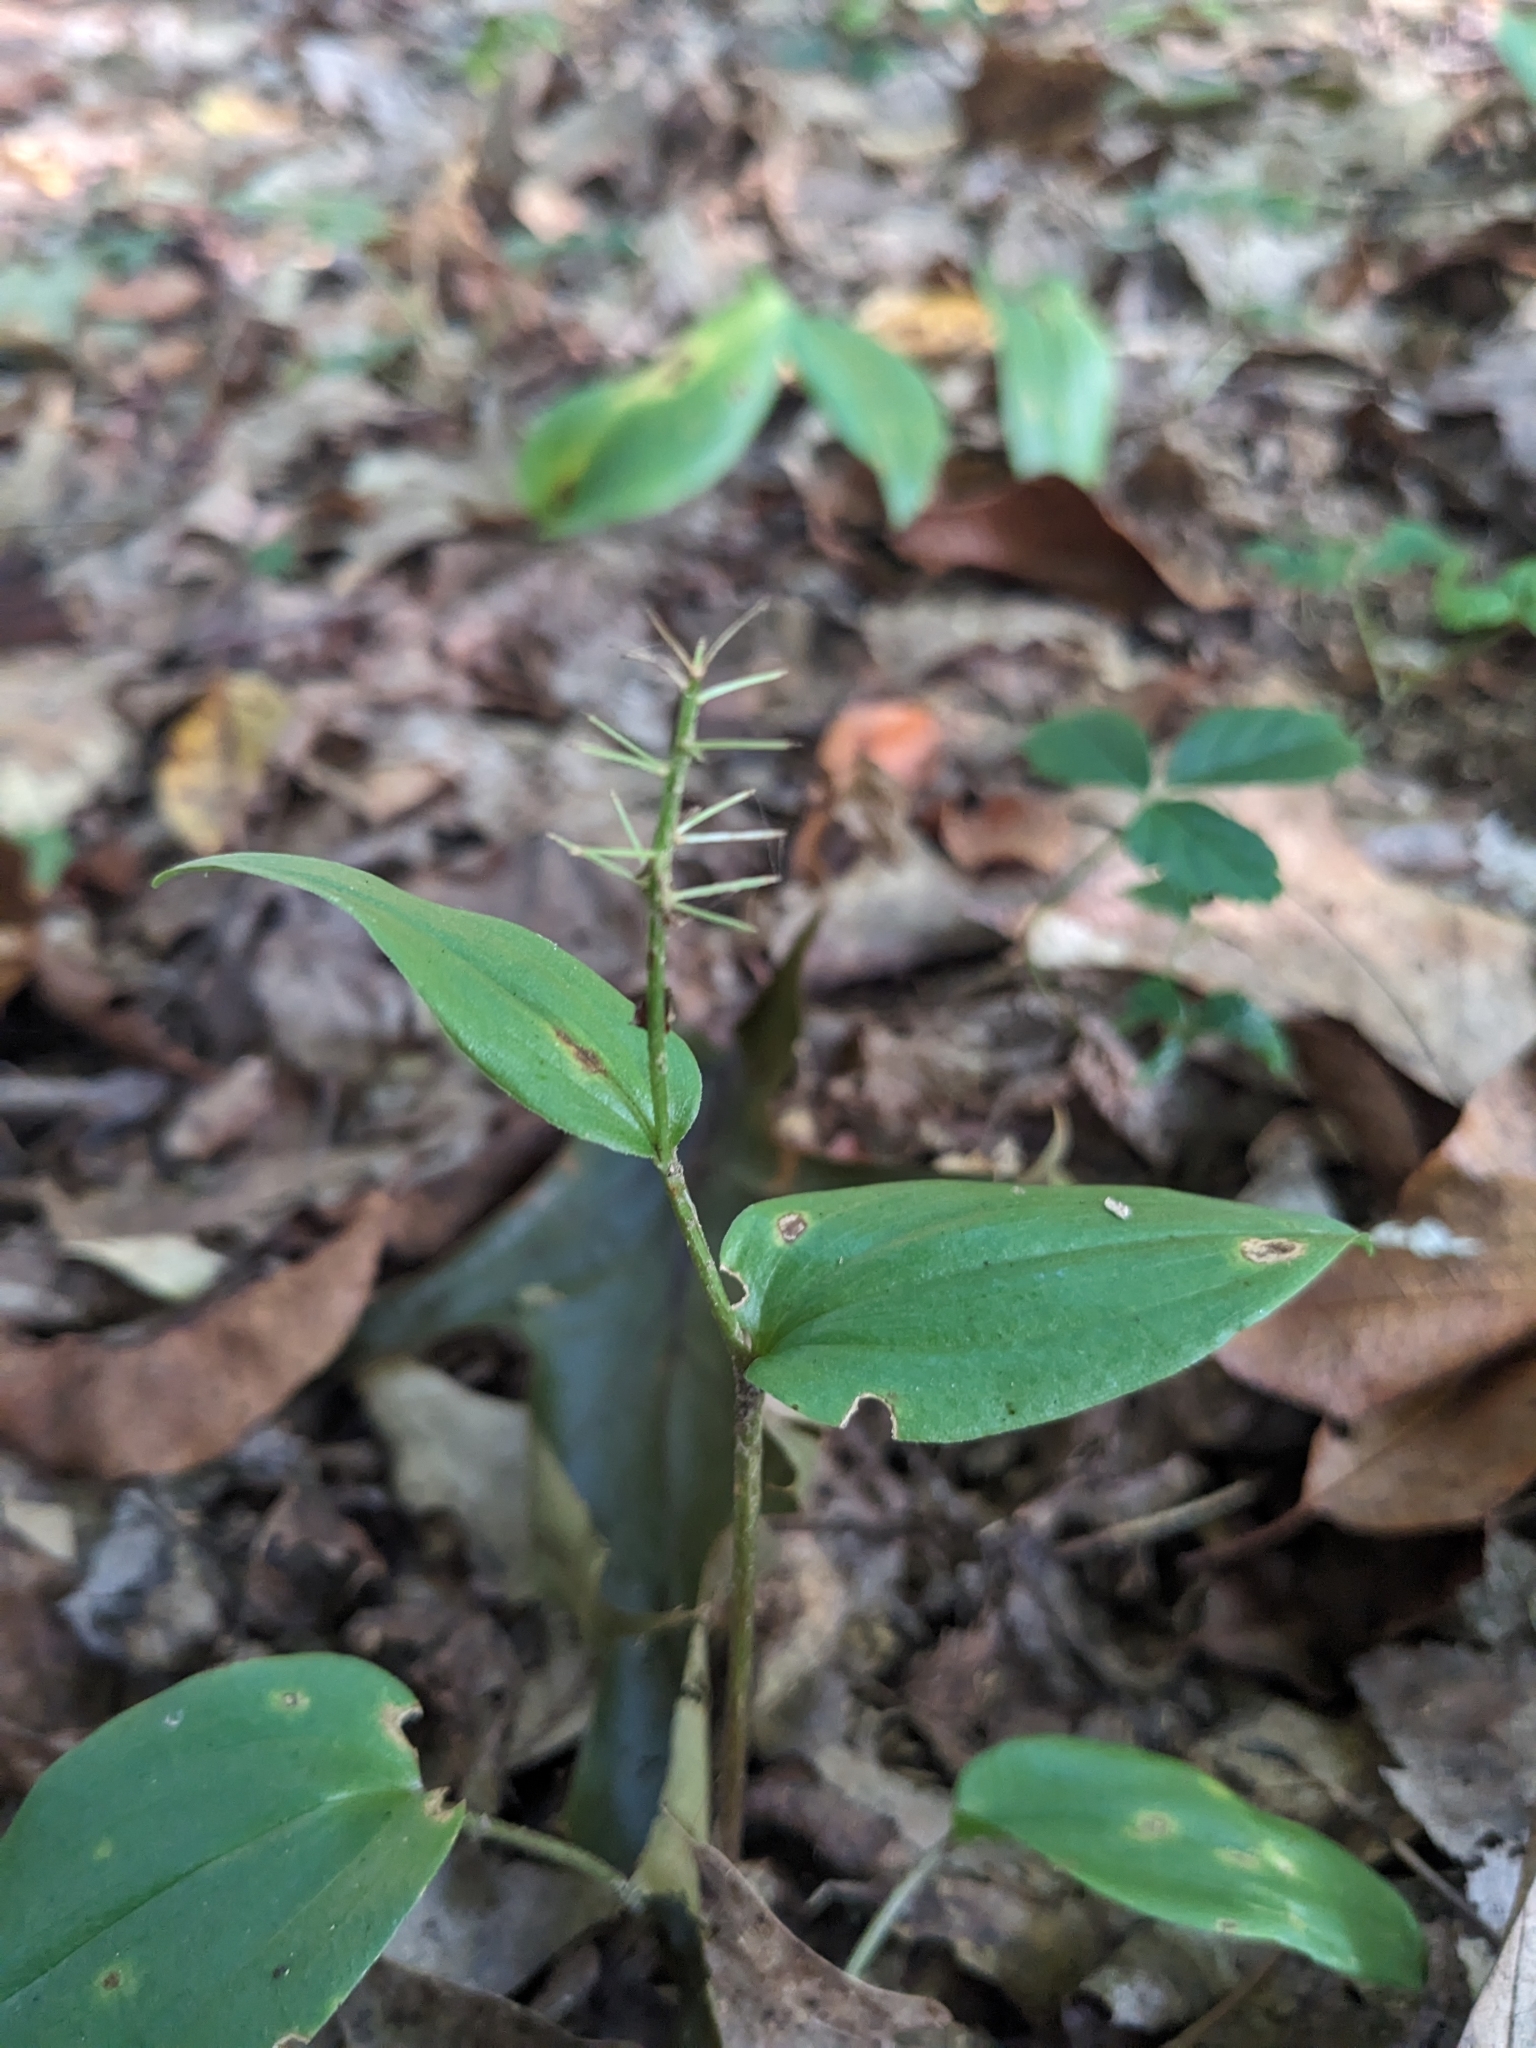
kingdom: Plantae
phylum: Tracheophyta
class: Liliopsida
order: Asparagales
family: Asparagaceae
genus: Maianthemum
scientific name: Maianthemum canadense
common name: False lily-of-the-valley
